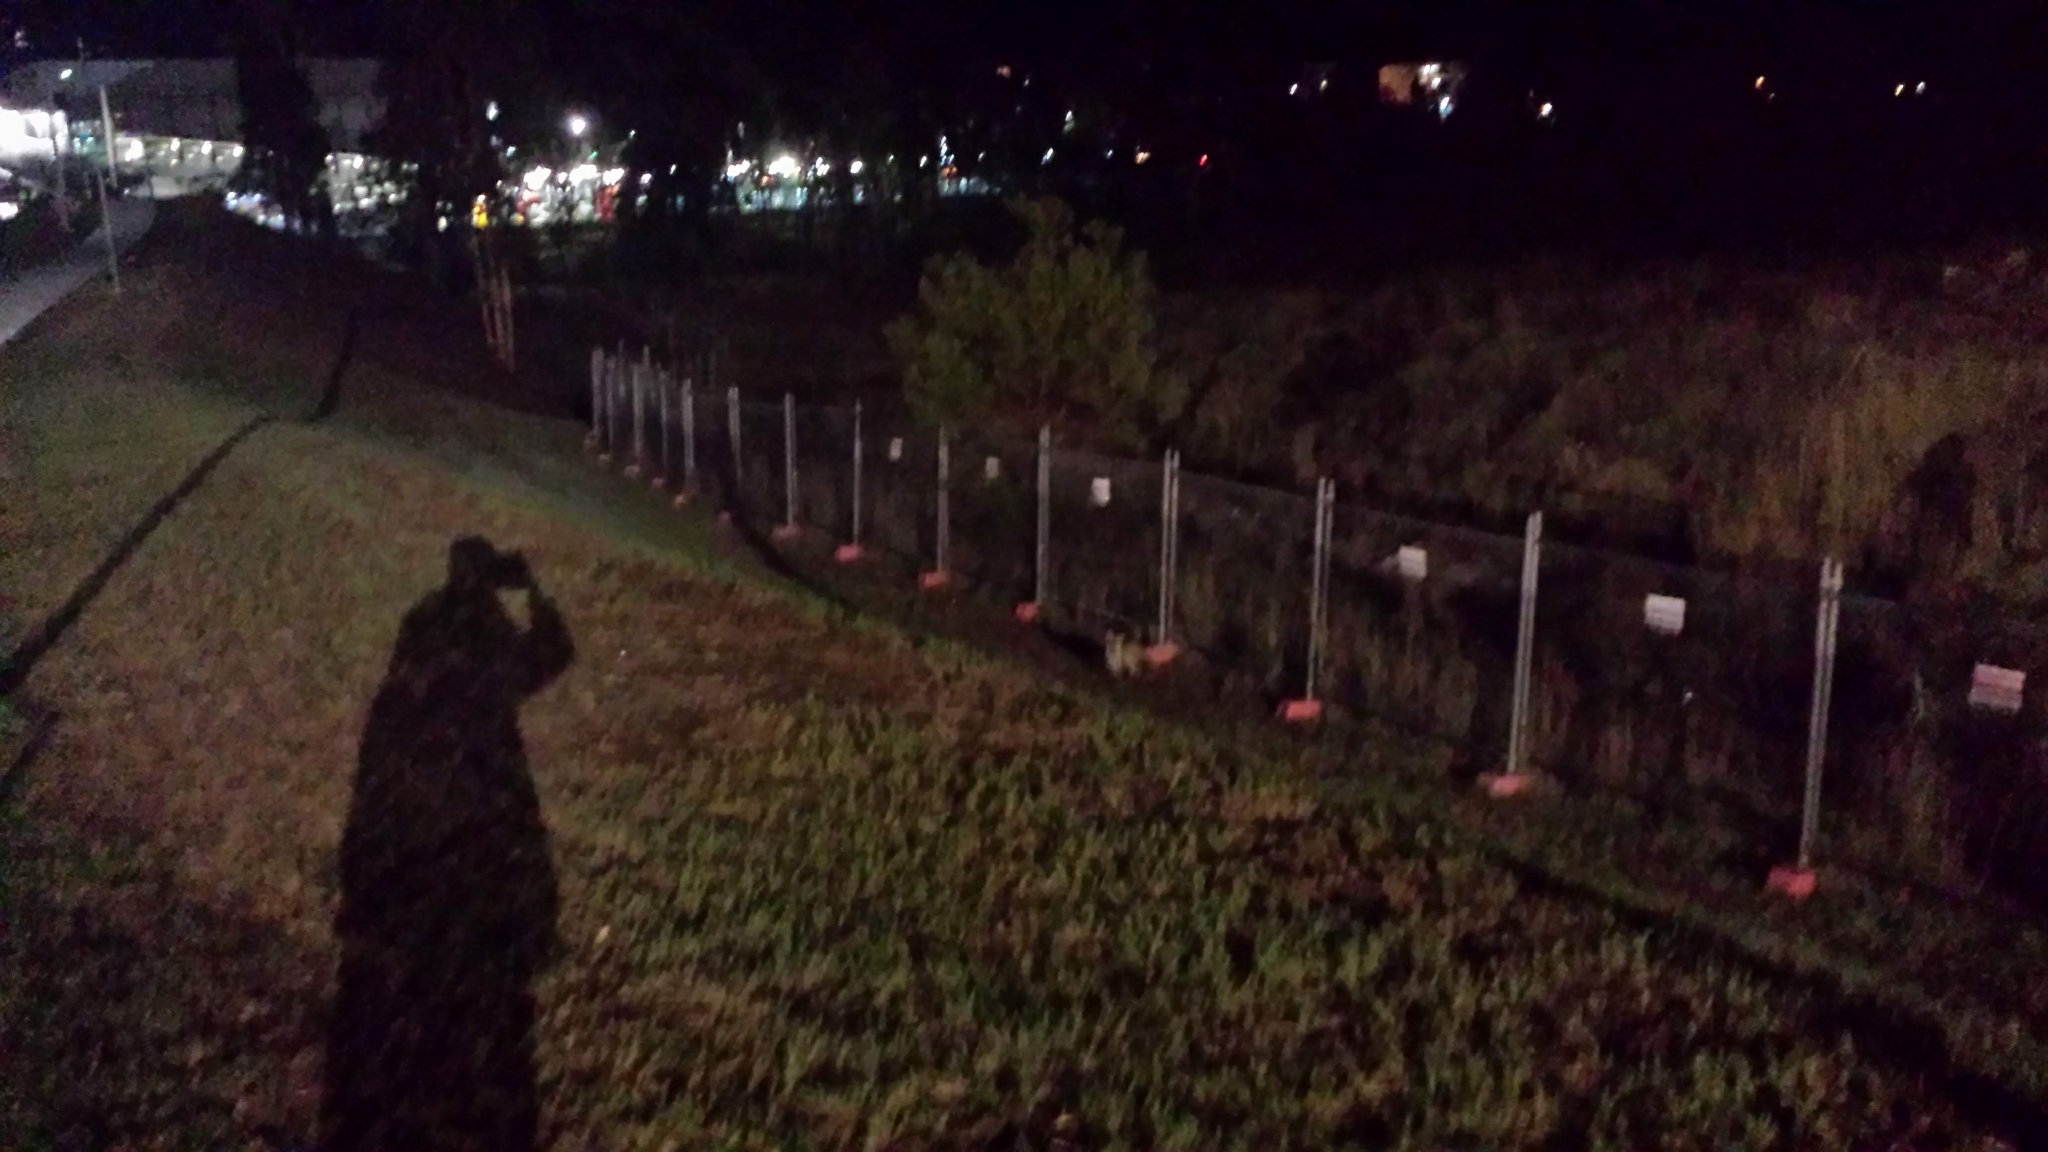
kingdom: Animalia
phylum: Chordata
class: Mammalia
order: Carnivora
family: Canidae
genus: Vulpes
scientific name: Vulpes vulpes
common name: Red fox
